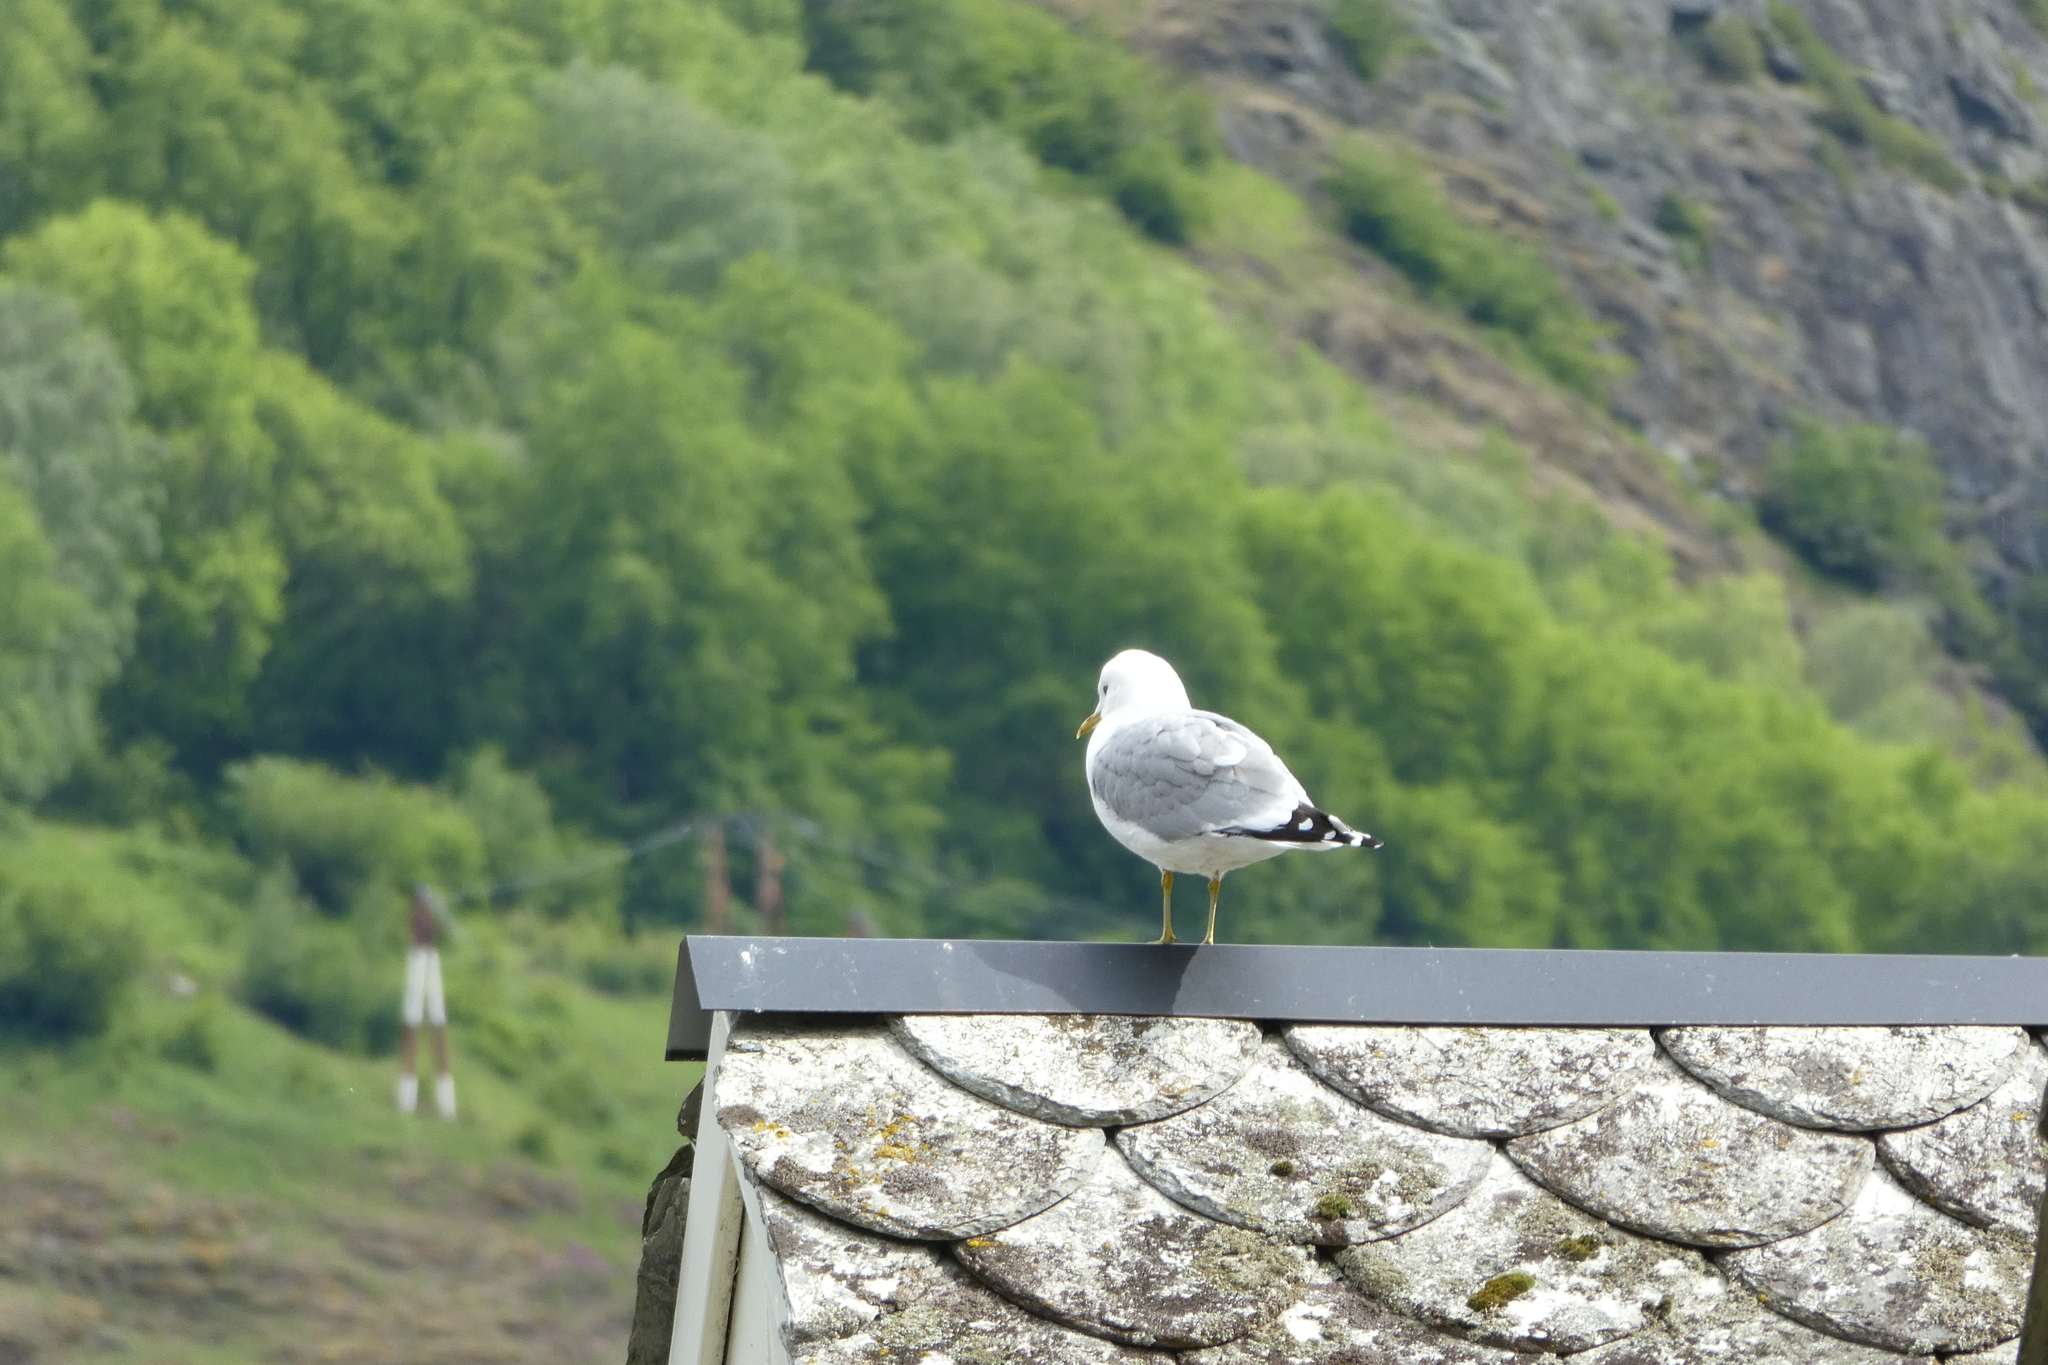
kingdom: Animalia
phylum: Chordata
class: Aves
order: Charadriiformes
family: Laridae
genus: Larus
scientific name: Larus canus
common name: Mew gull
